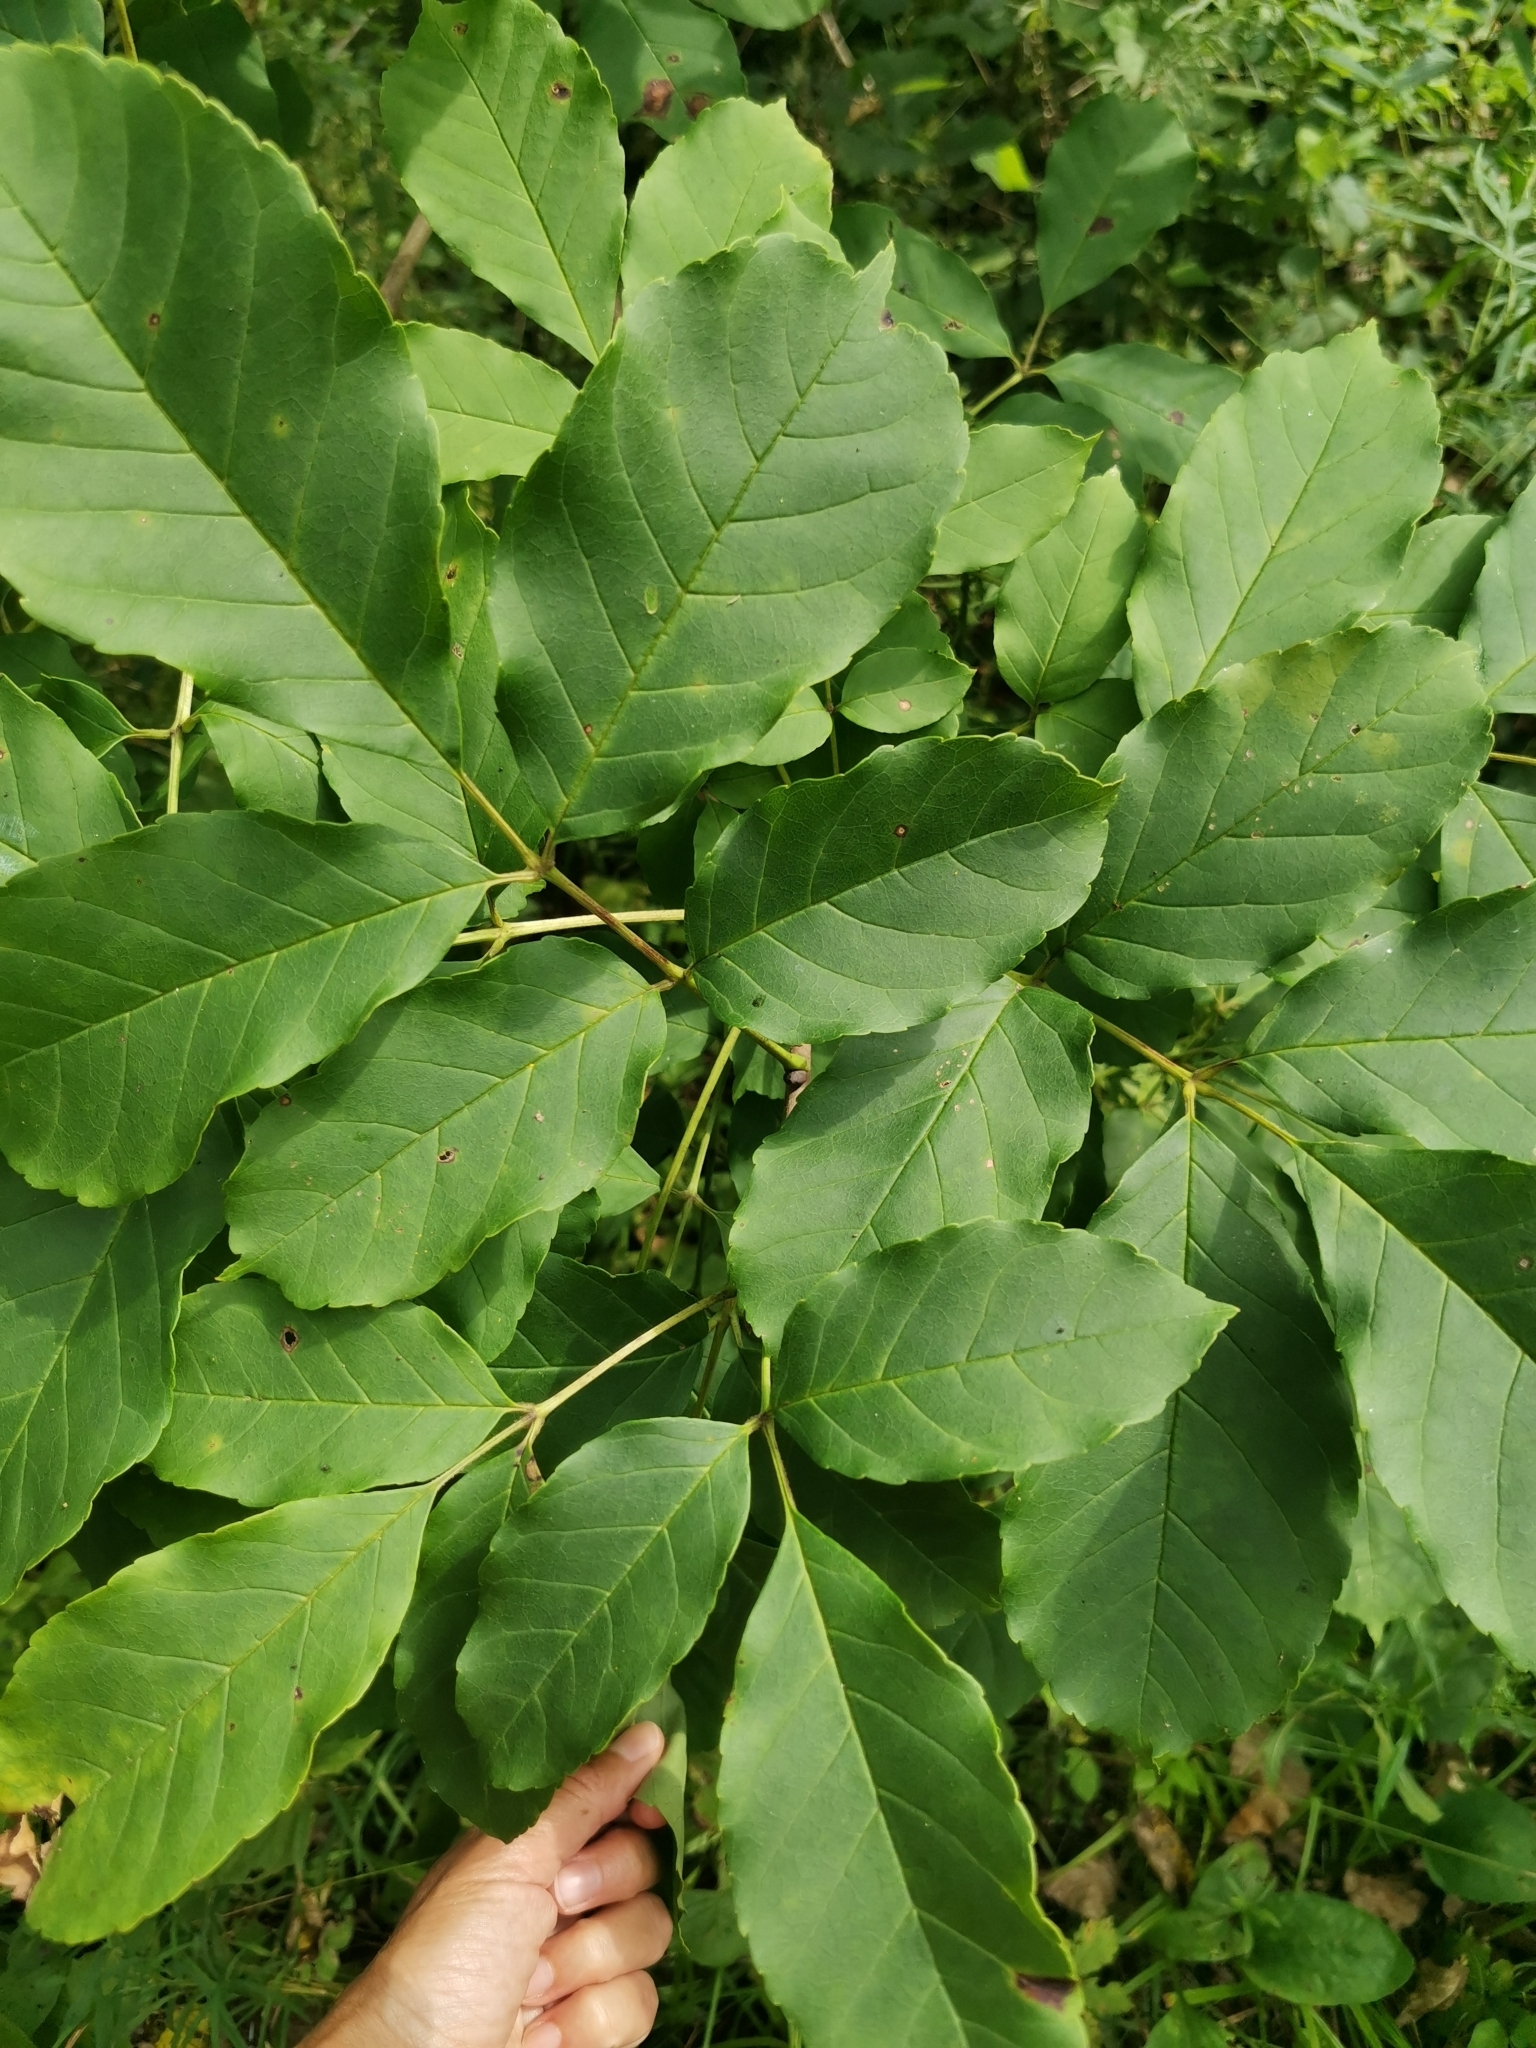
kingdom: Plantae
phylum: Tracheophyta
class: Magnoliopsida
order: Lamiales
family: Oleaceae
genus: Fraxinus
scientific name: Fraxinus chinensis
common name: Chinese ash
